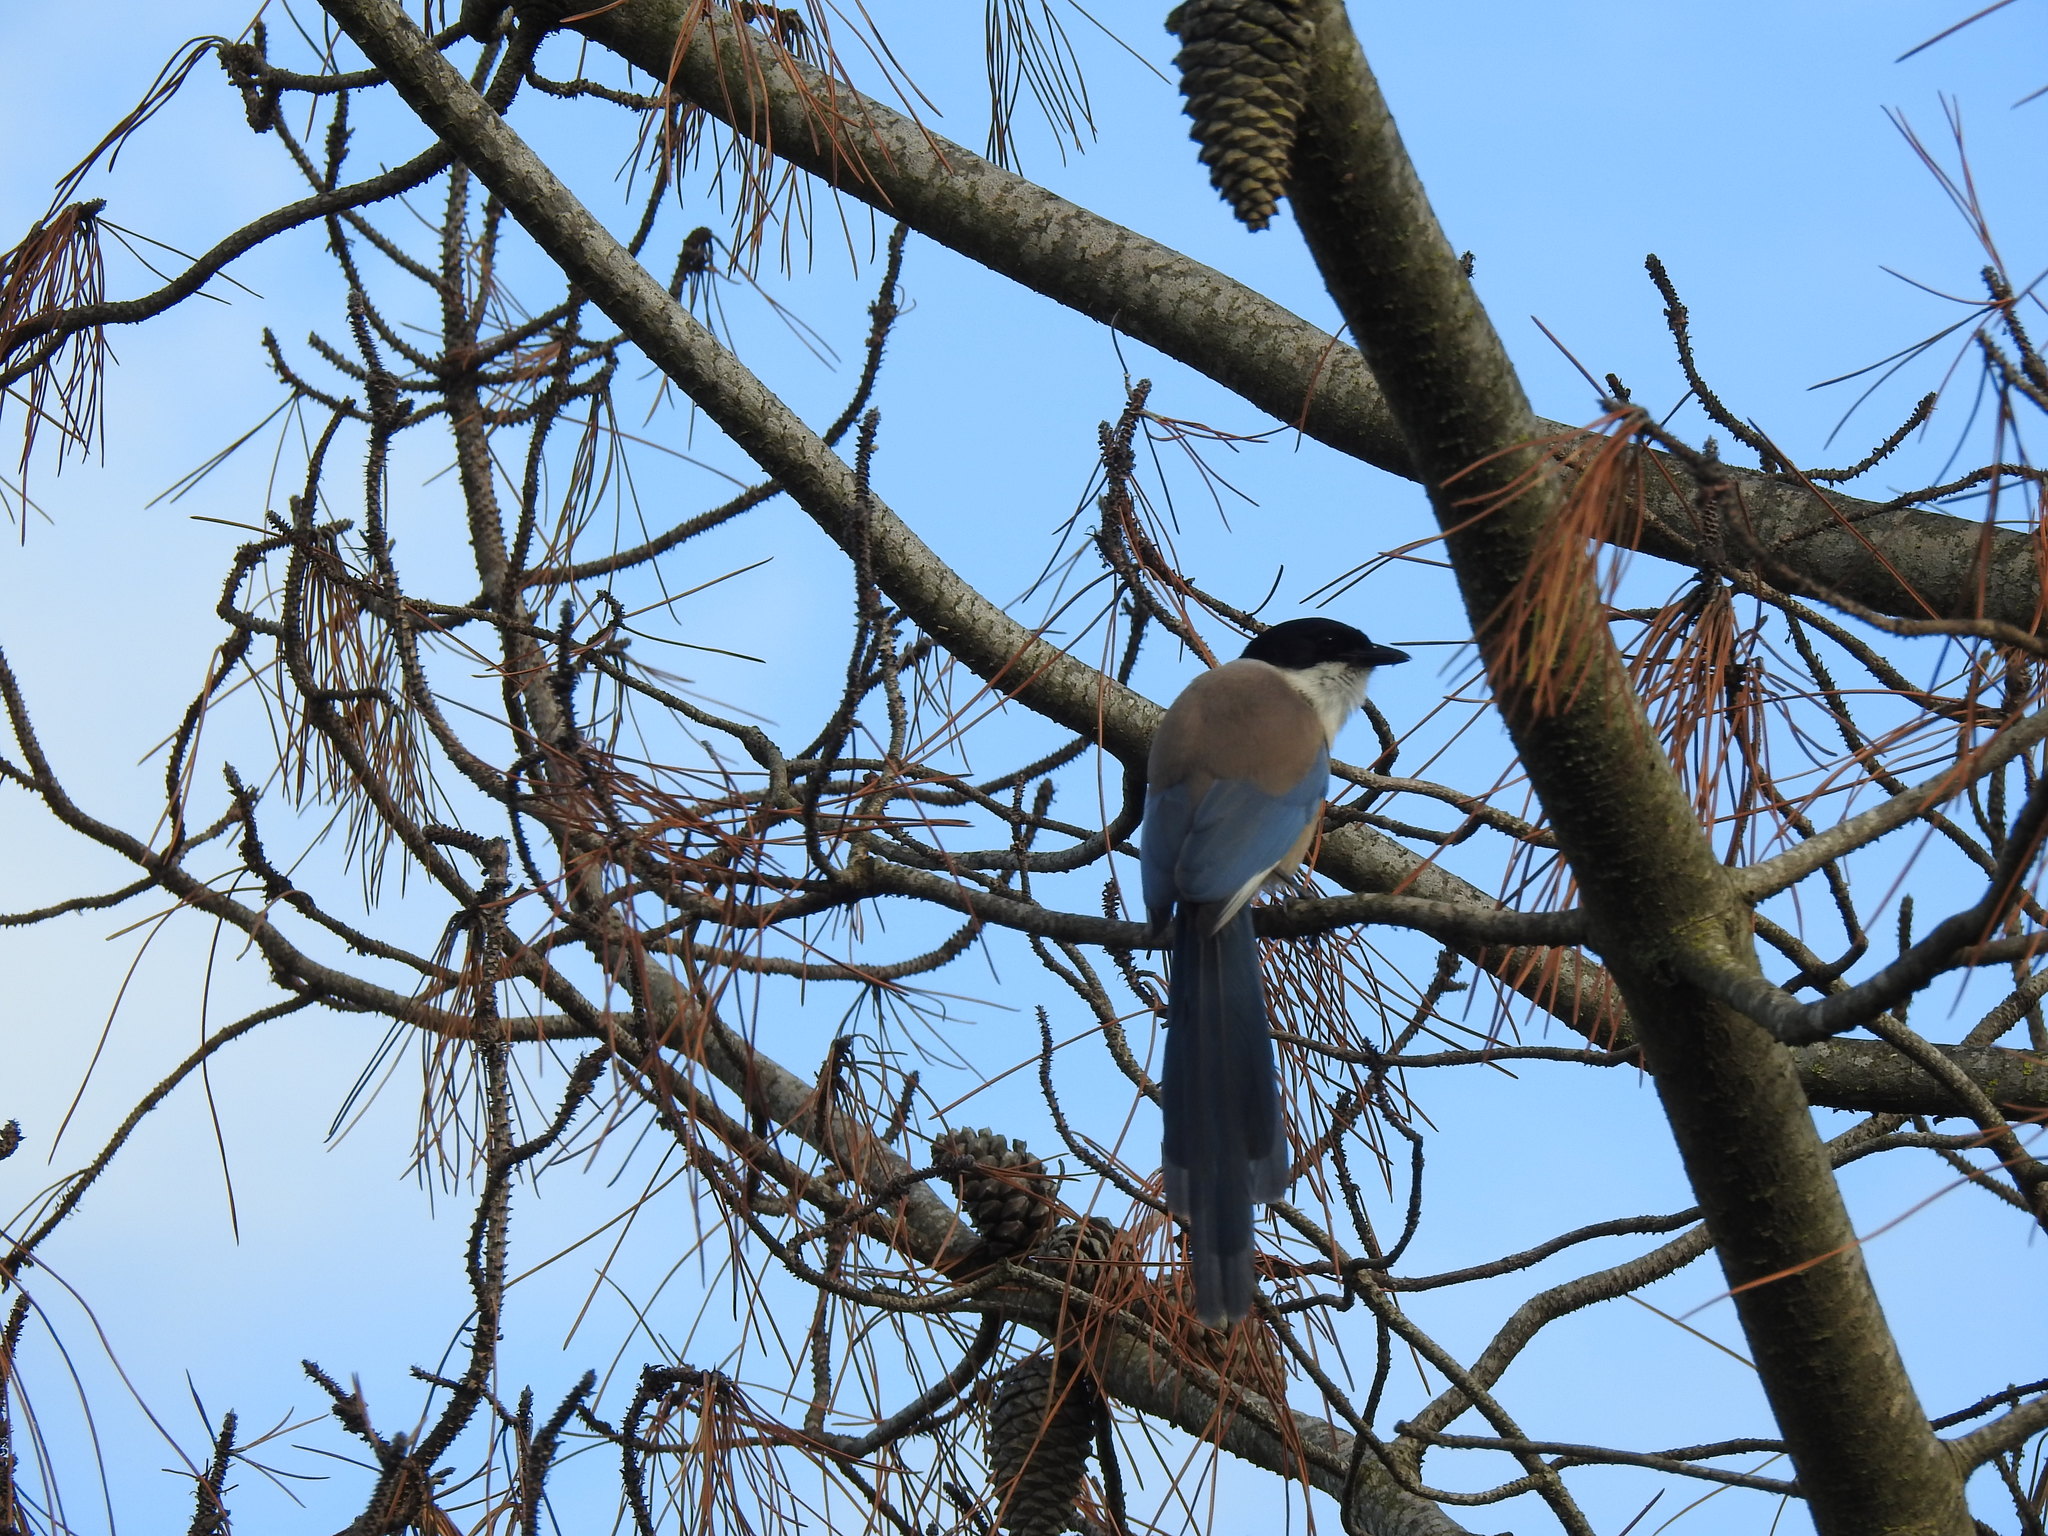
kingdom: Animalia
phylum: Chordata
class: Aves
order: Passeriformes
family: Corvidae
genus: Cyanopica
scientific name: Cyanopica cooki
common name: Iberian magpie
